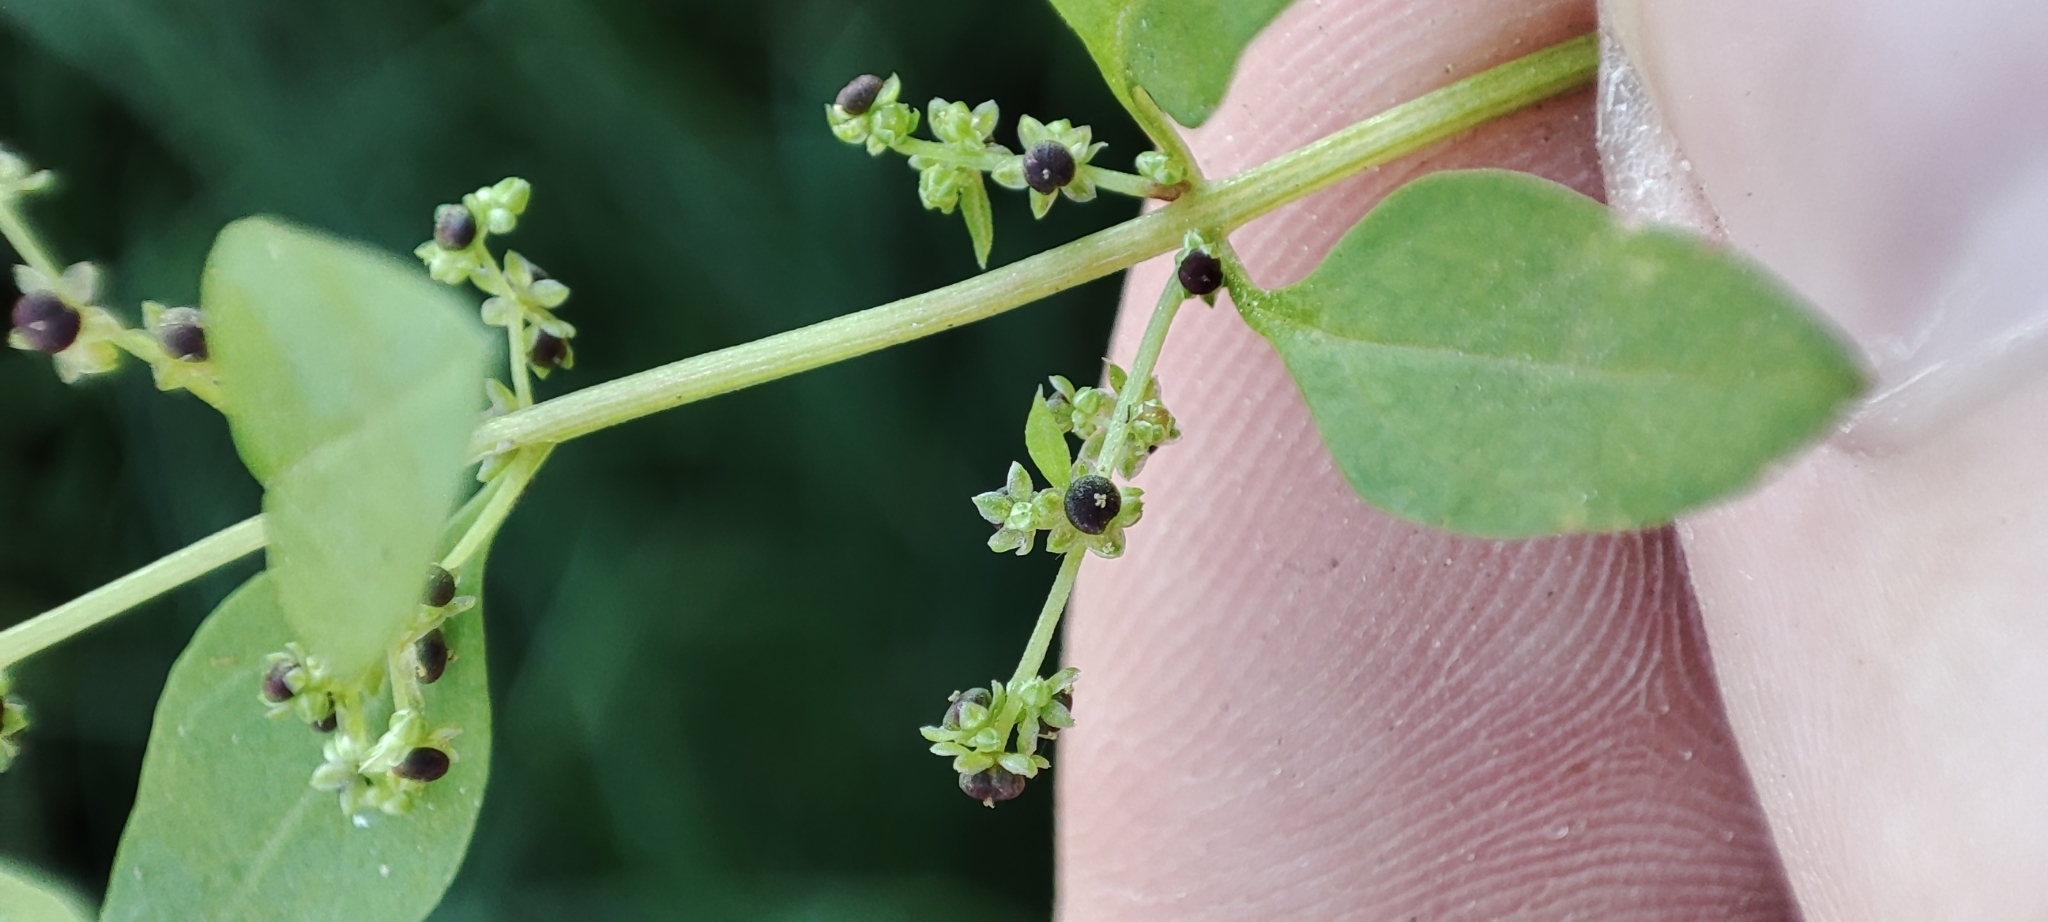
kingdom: Plantae
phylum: Tracheophyta
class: Magnoliopsida
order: Caryophyllales
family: Amaranthaceae
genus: Lipandra
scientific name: Lipandra polysperma
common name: Many-seed goosefoot
